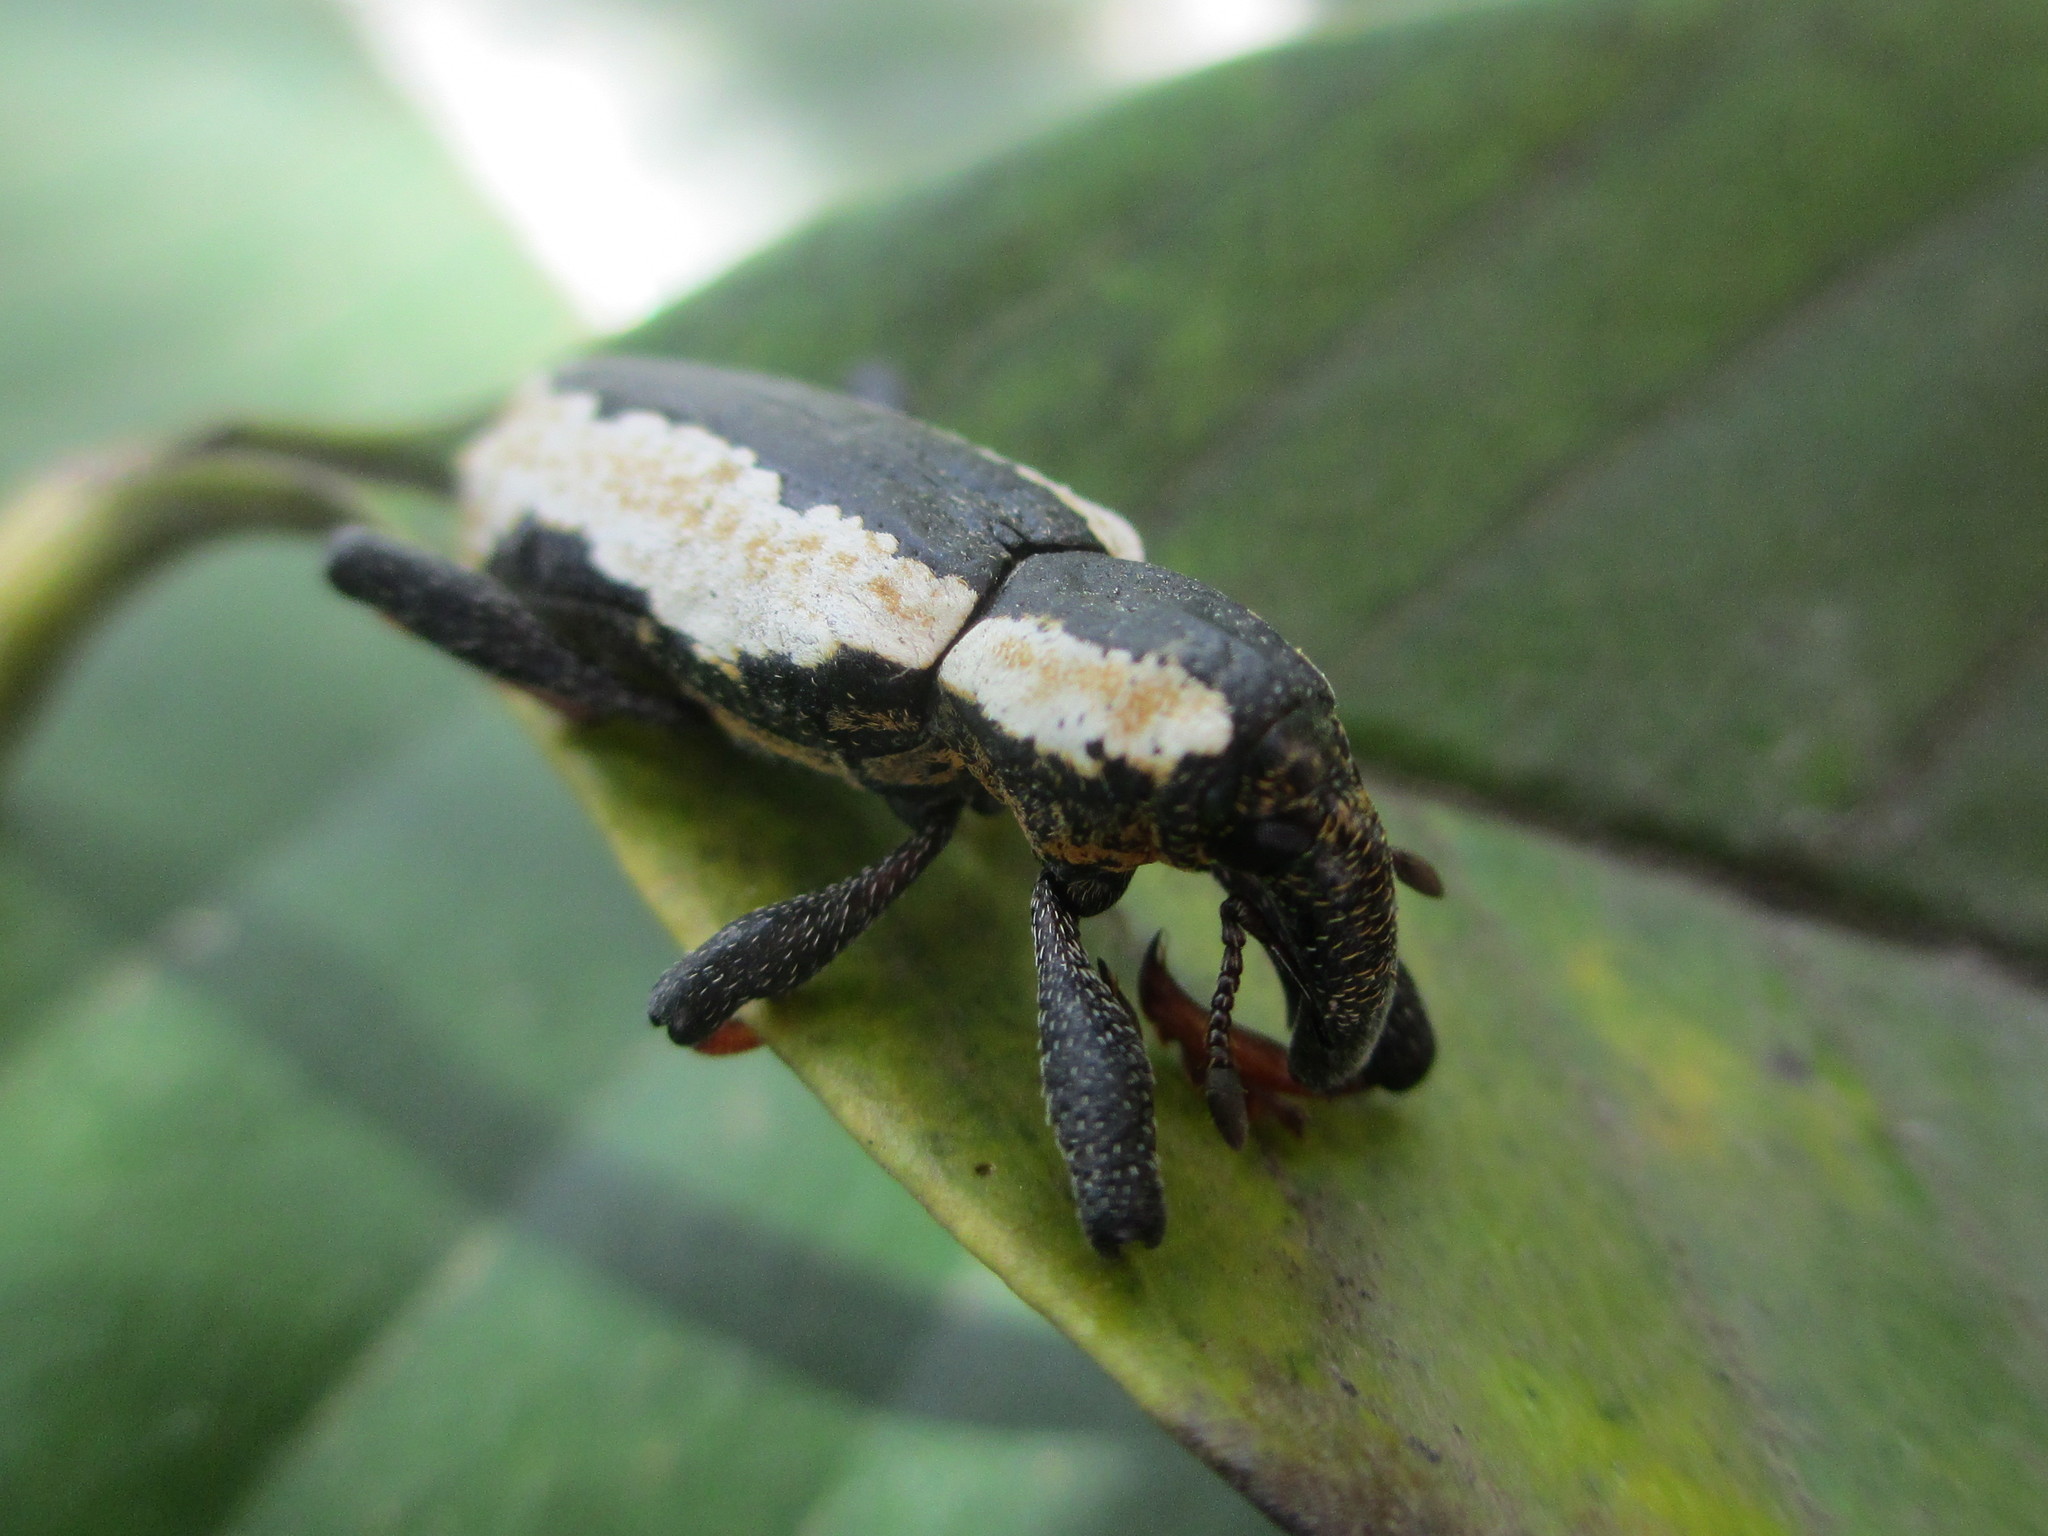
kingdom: Animalia
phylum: Arthropoda
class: Insecta
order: Coleoptera
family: Curculionidae
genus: Heilipus
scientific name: Heilipus gibbus
